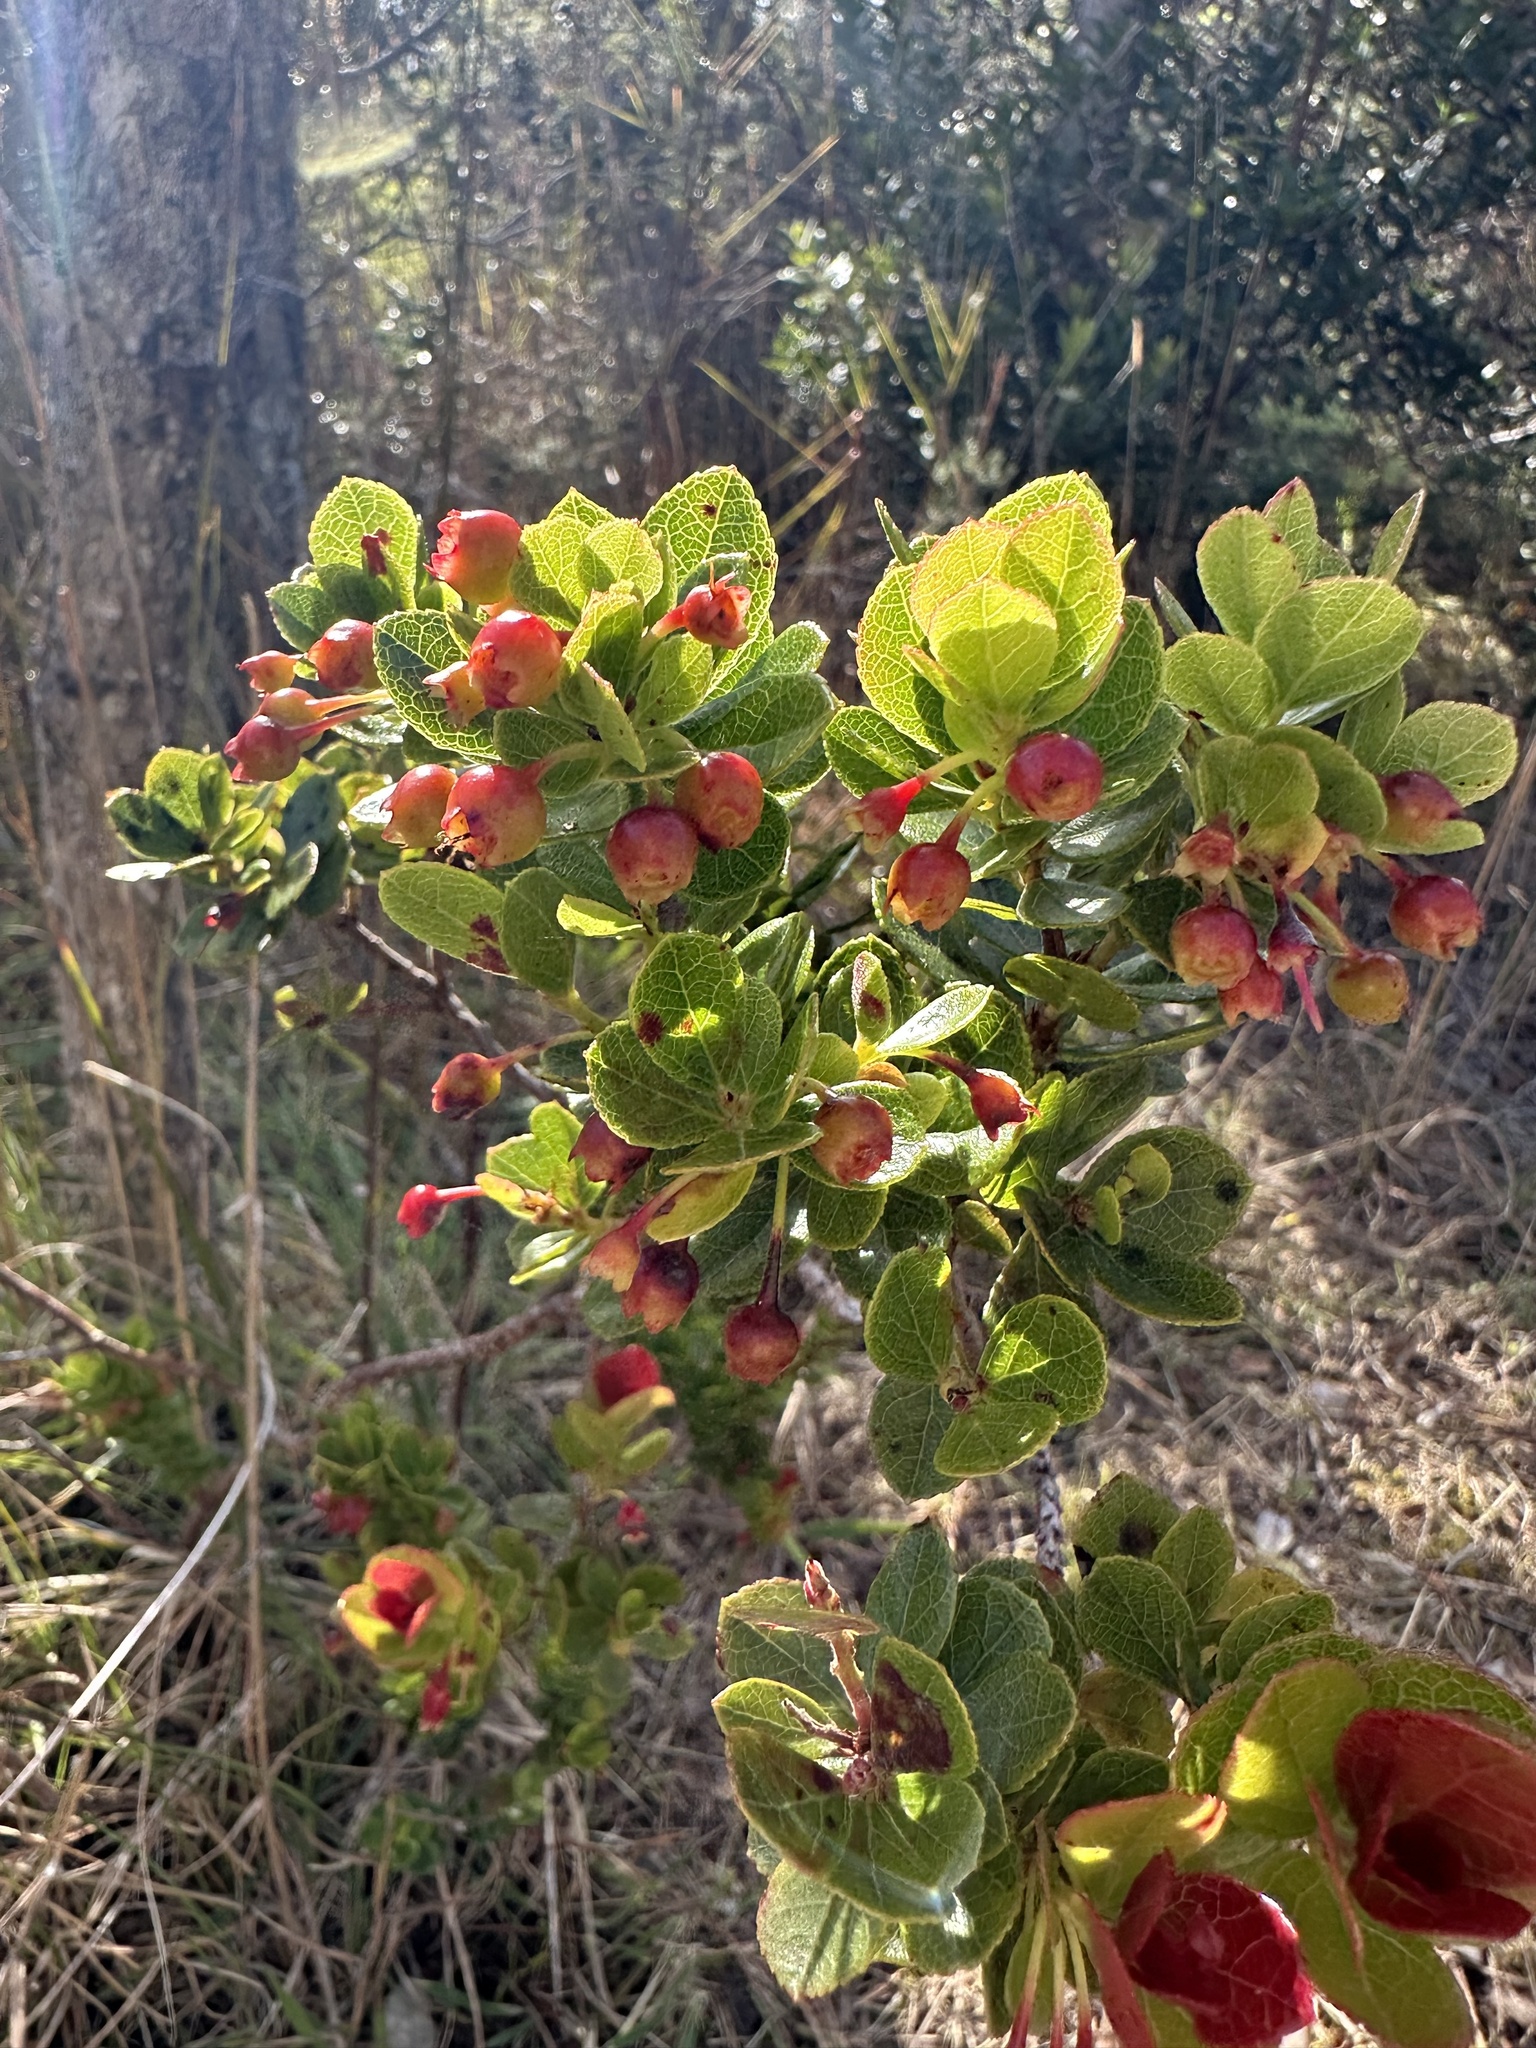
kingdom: Plantae
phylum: Tracheophyta
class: Magnoliopsida
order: Ericales
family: Ericaceae
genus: Vaccinium
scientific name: Vaccinium reticulatum
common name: Ohelo
